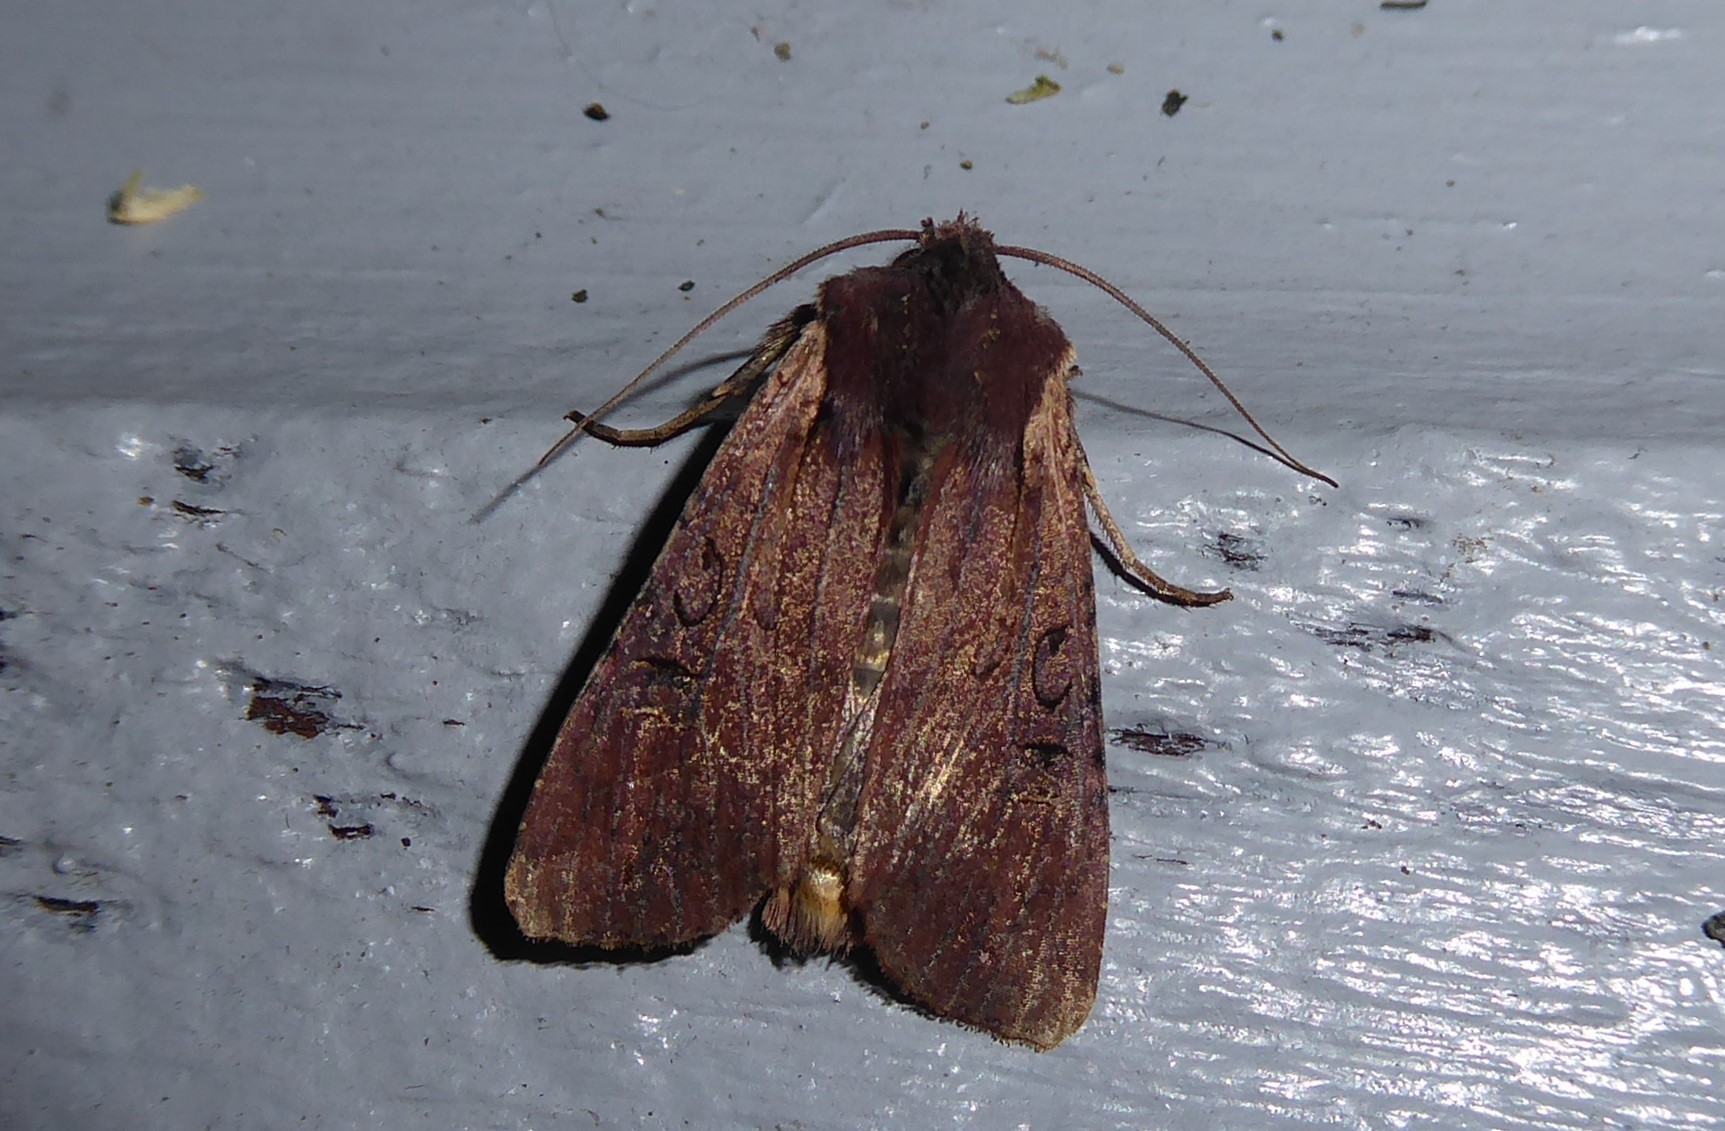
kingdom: Animalia
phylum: Arthropoda
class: Insecta
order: Lepidoptera
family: Noctuidae
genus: Ichneutica
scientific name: Ichneutica omoplaca
